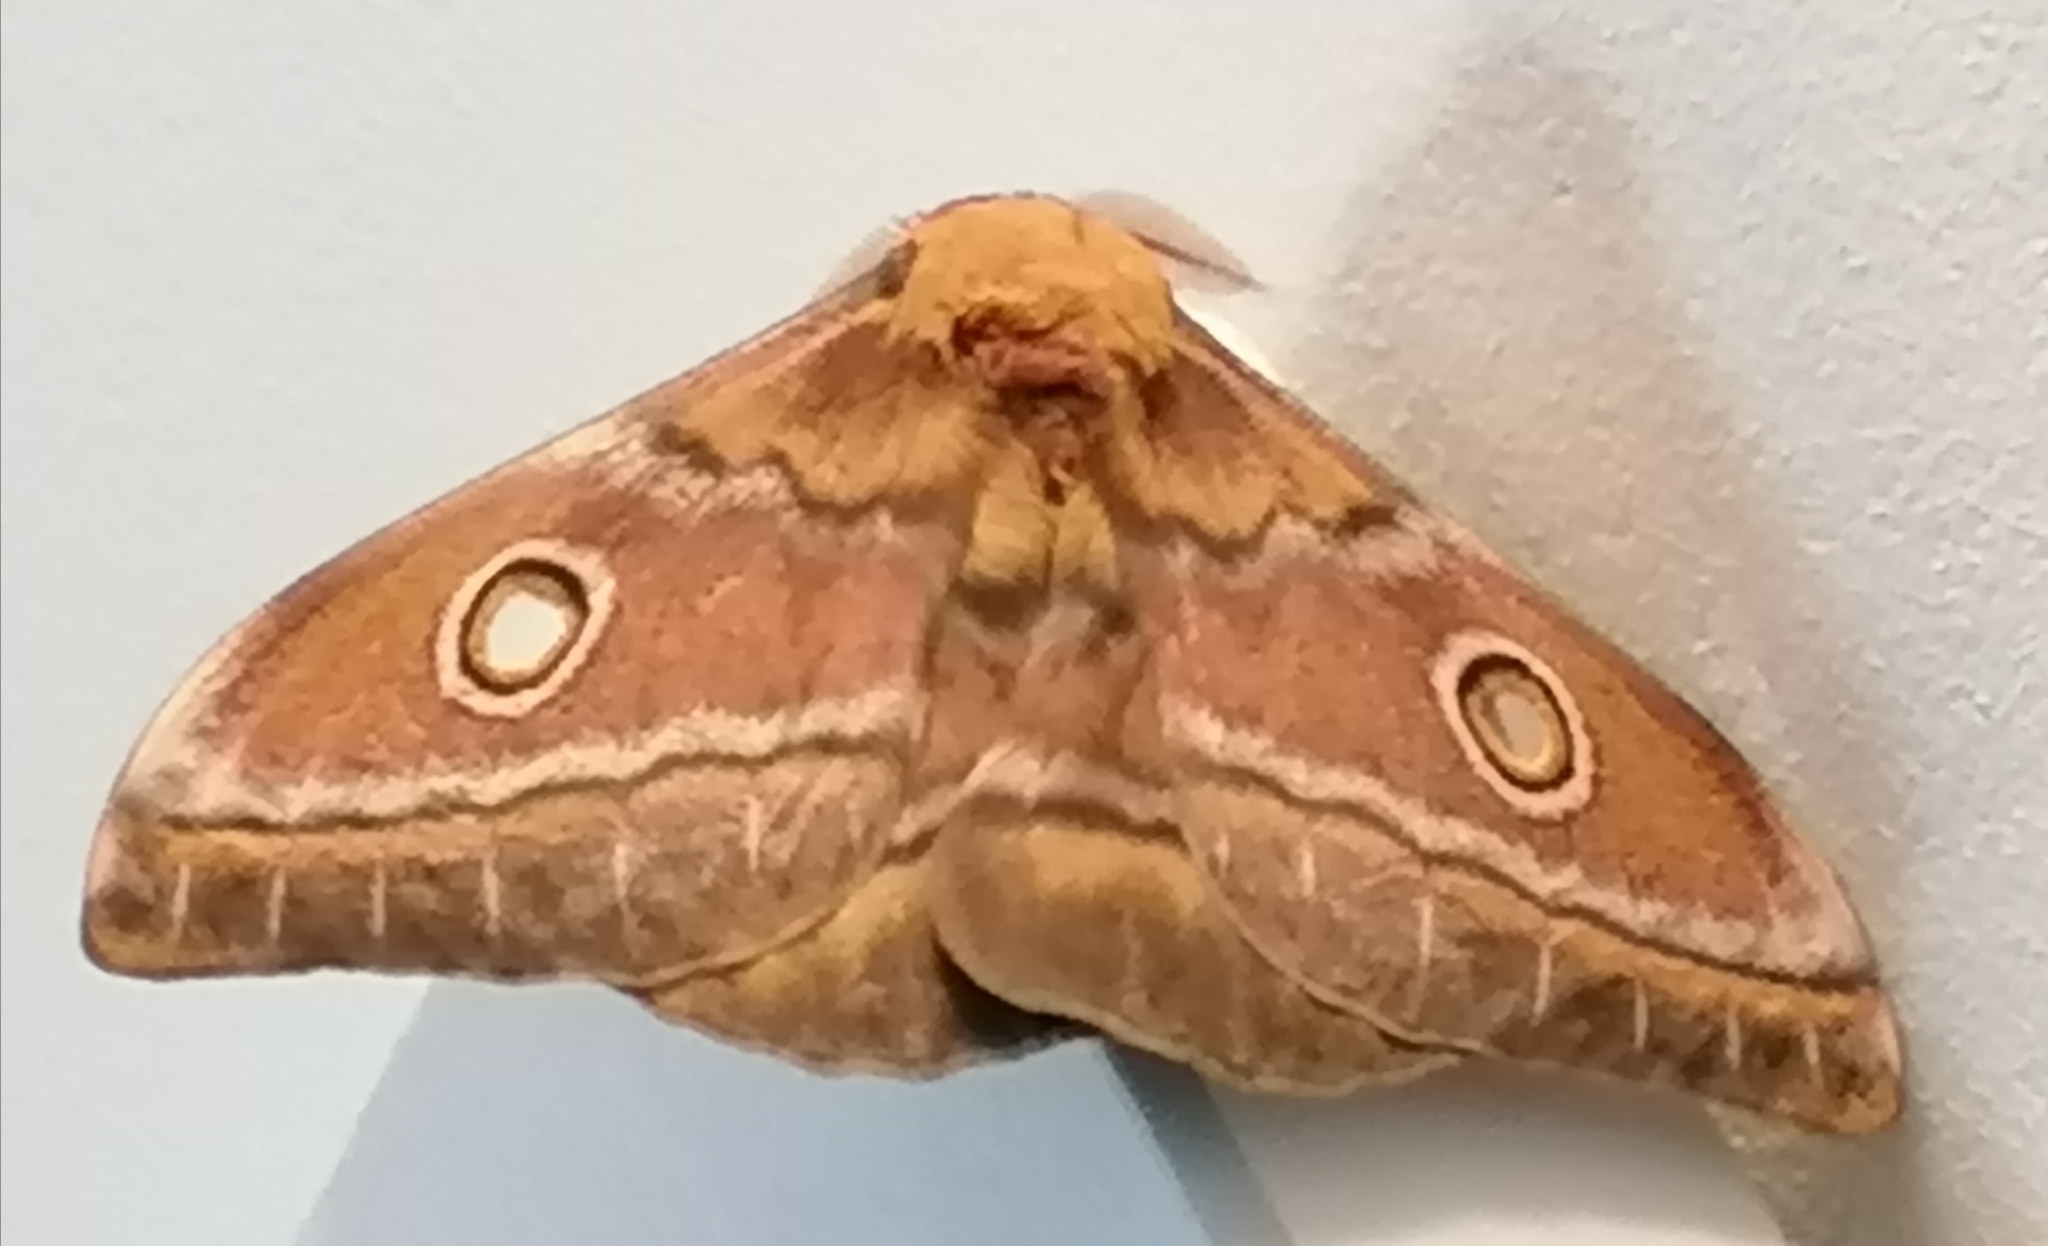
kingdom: Animalia
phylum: Arthropoda
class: Insecta
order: Lepidoptera
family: Saturniidae
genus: Nudaurelia
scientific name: Nudaurelia cytherea
